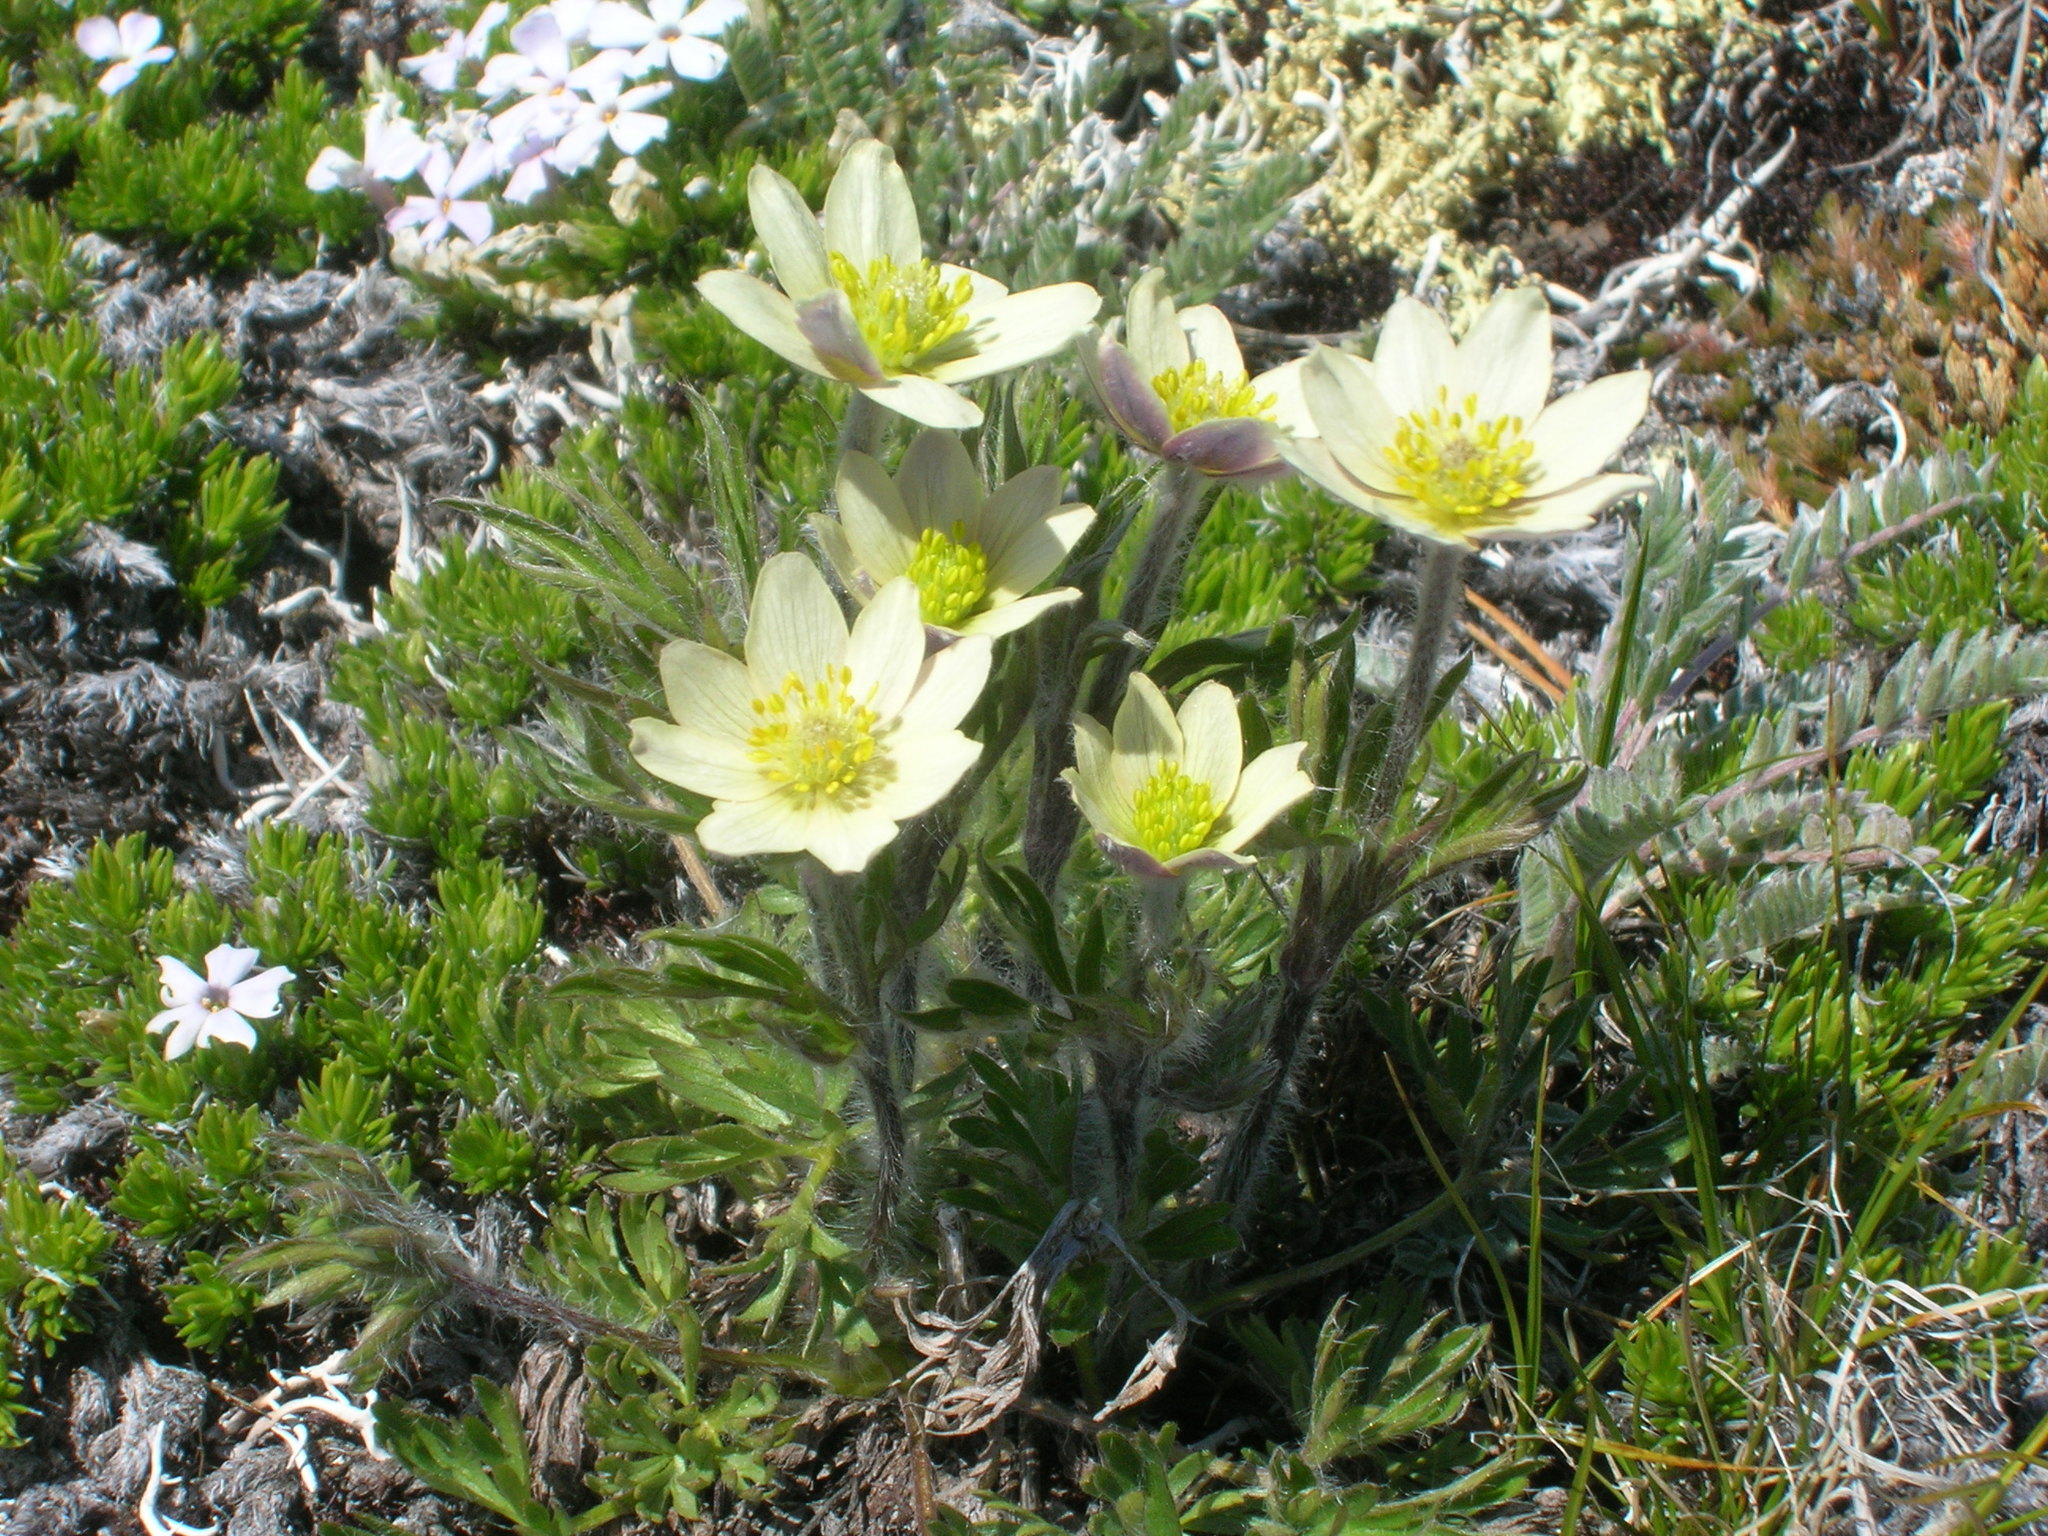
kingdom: Plantae
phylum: Tracheophyta
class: Magnoliopsida
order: Ranunculales
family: Ranunculaceae
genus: Pulsatilla
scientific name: Pulsatilla occidentalis
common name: Mountain pasqueflower
